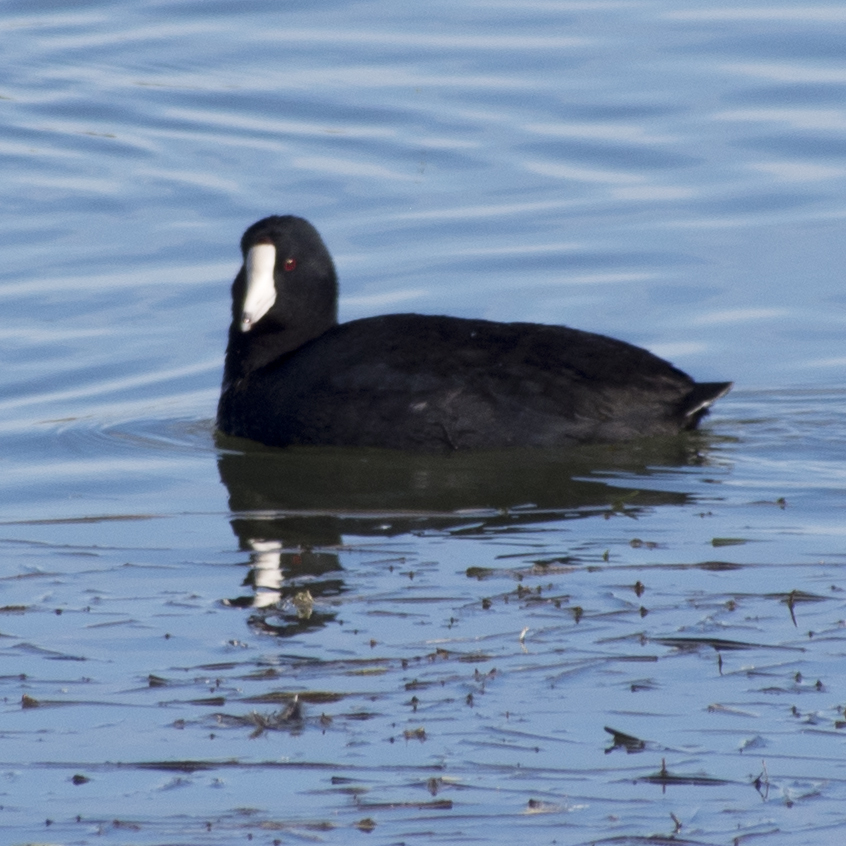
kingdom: Animalia
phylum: Chordata
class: Aves
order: Gruiformes
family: Rallidae
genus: Fulica
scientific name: Fulica americana
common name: American coot
